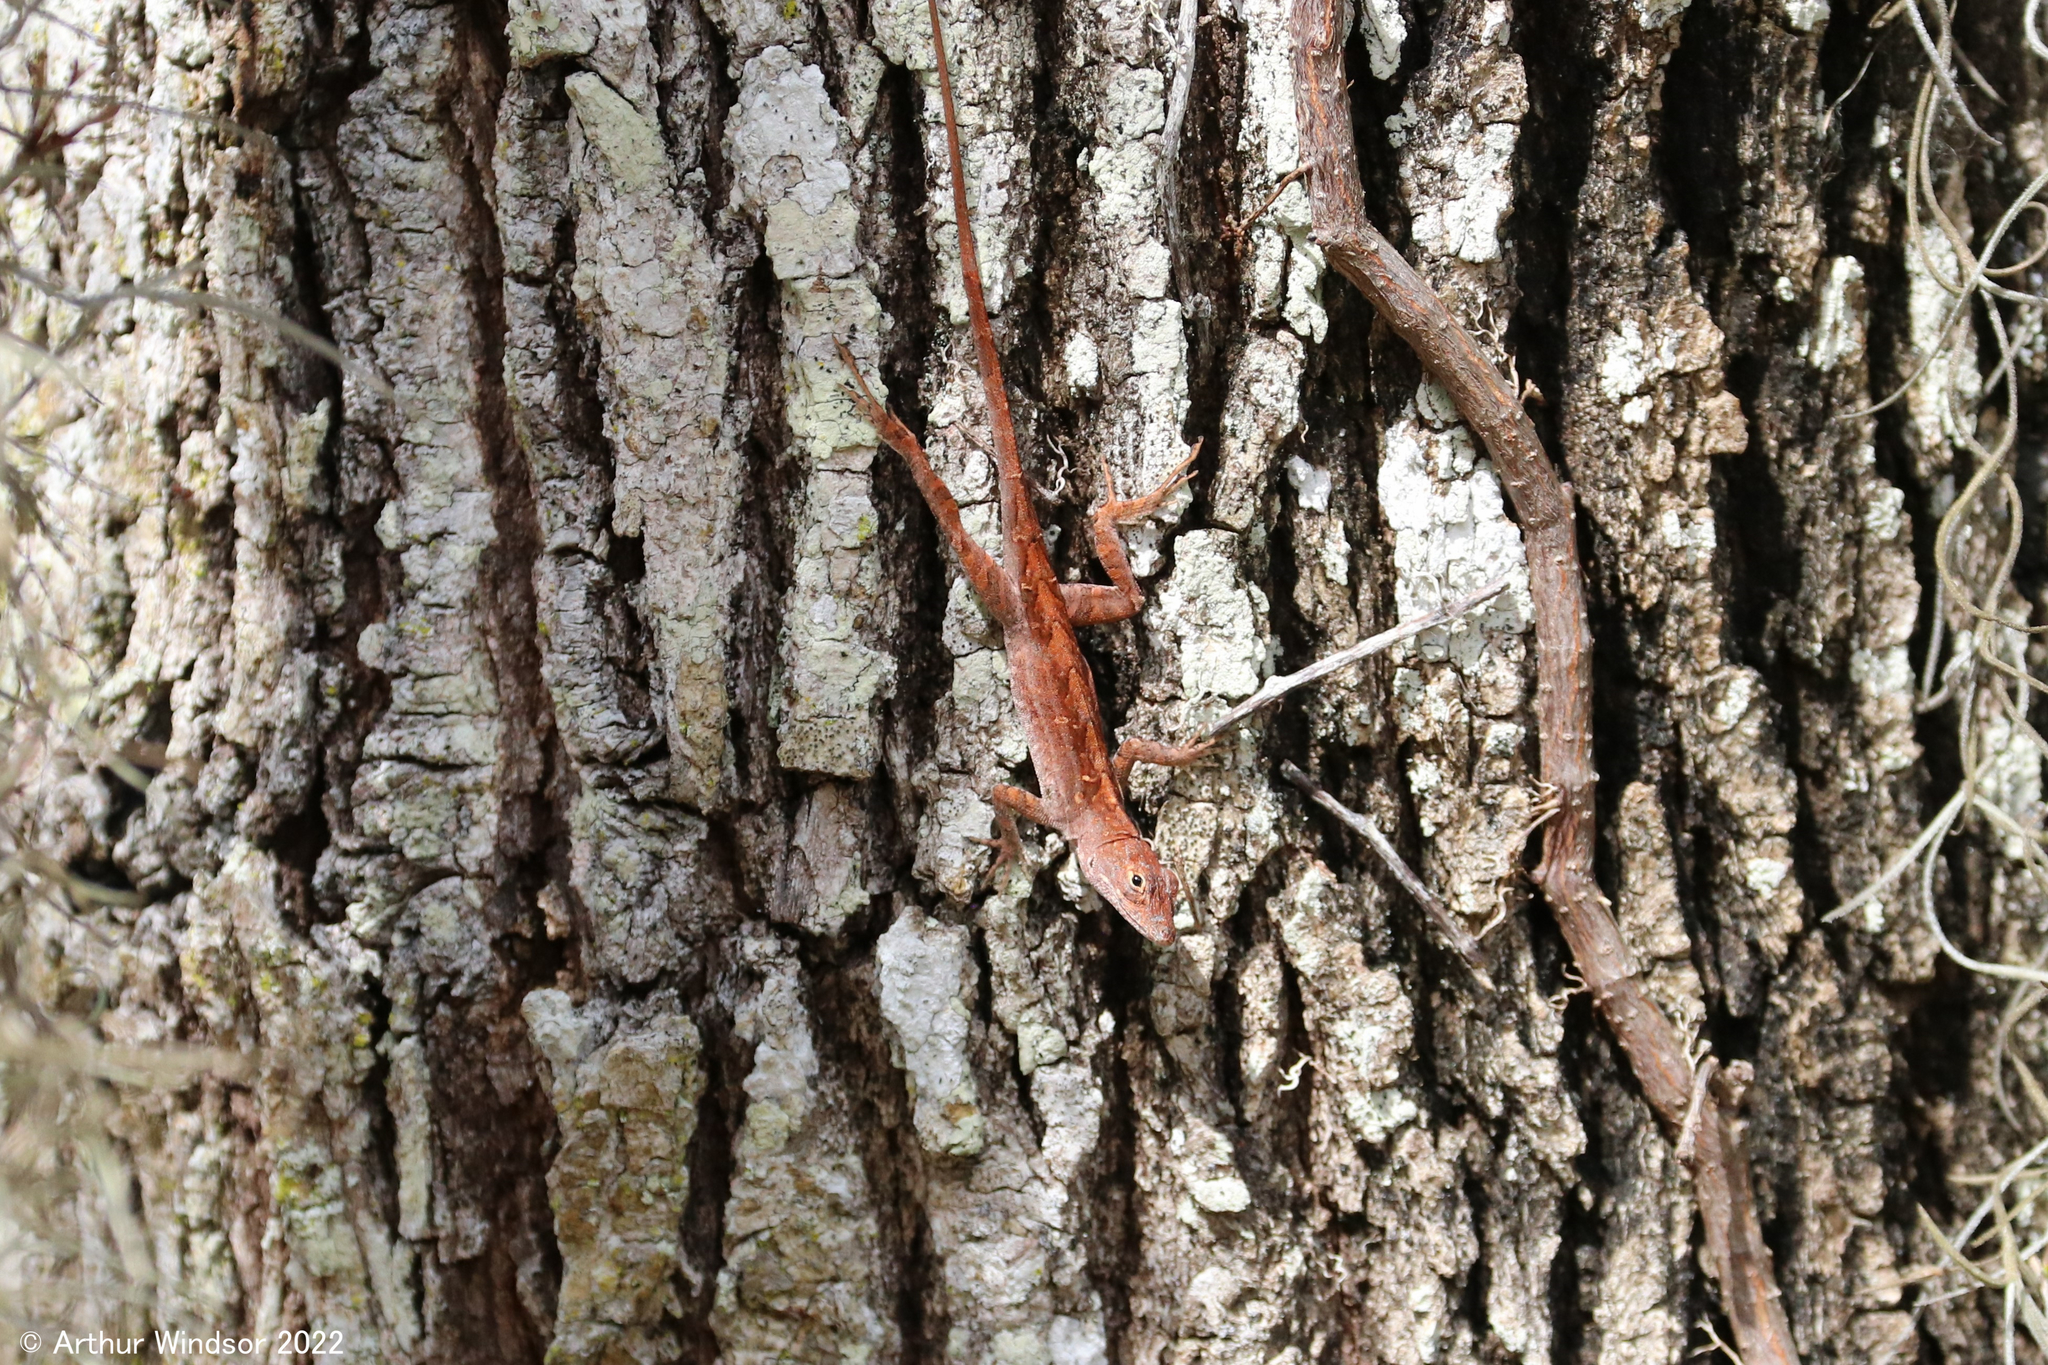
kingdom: Animalia
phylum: Chordata
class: Squamata
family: Dactyloidae
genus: Anolis
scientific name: Anolis sagrei
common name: Brown anole
